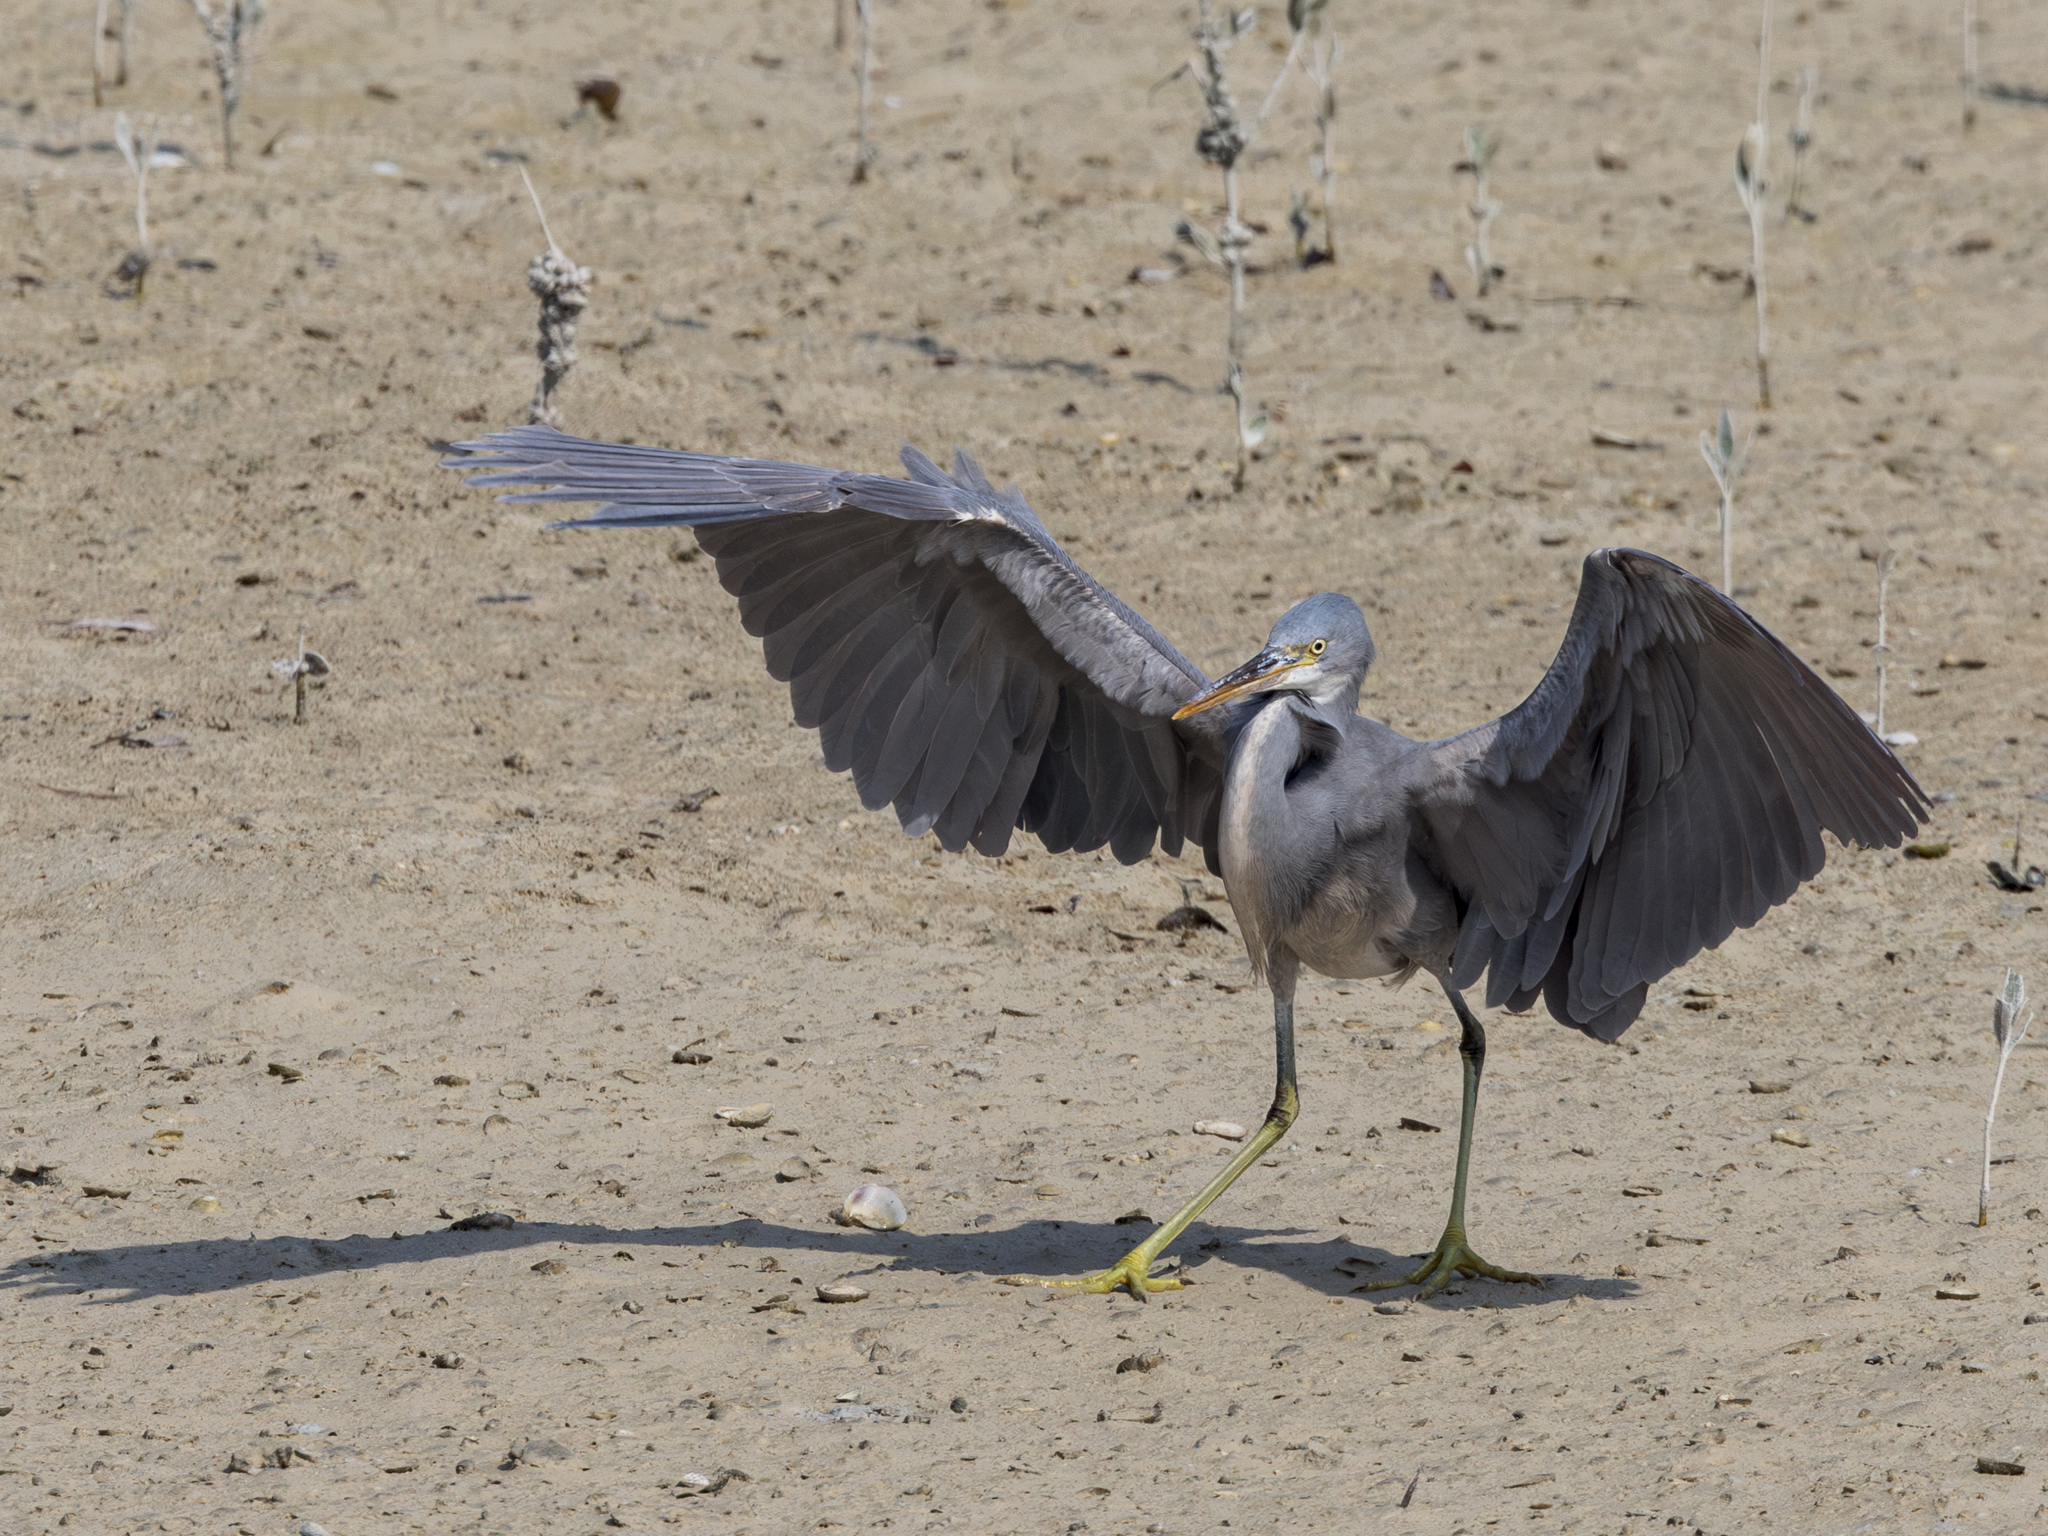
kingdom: Animalia
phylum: Chordata
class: Aves
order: Pelecaniformes
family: Ardeidae
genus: Egretta
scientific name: Egretta gularis
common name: Western reef-heron
